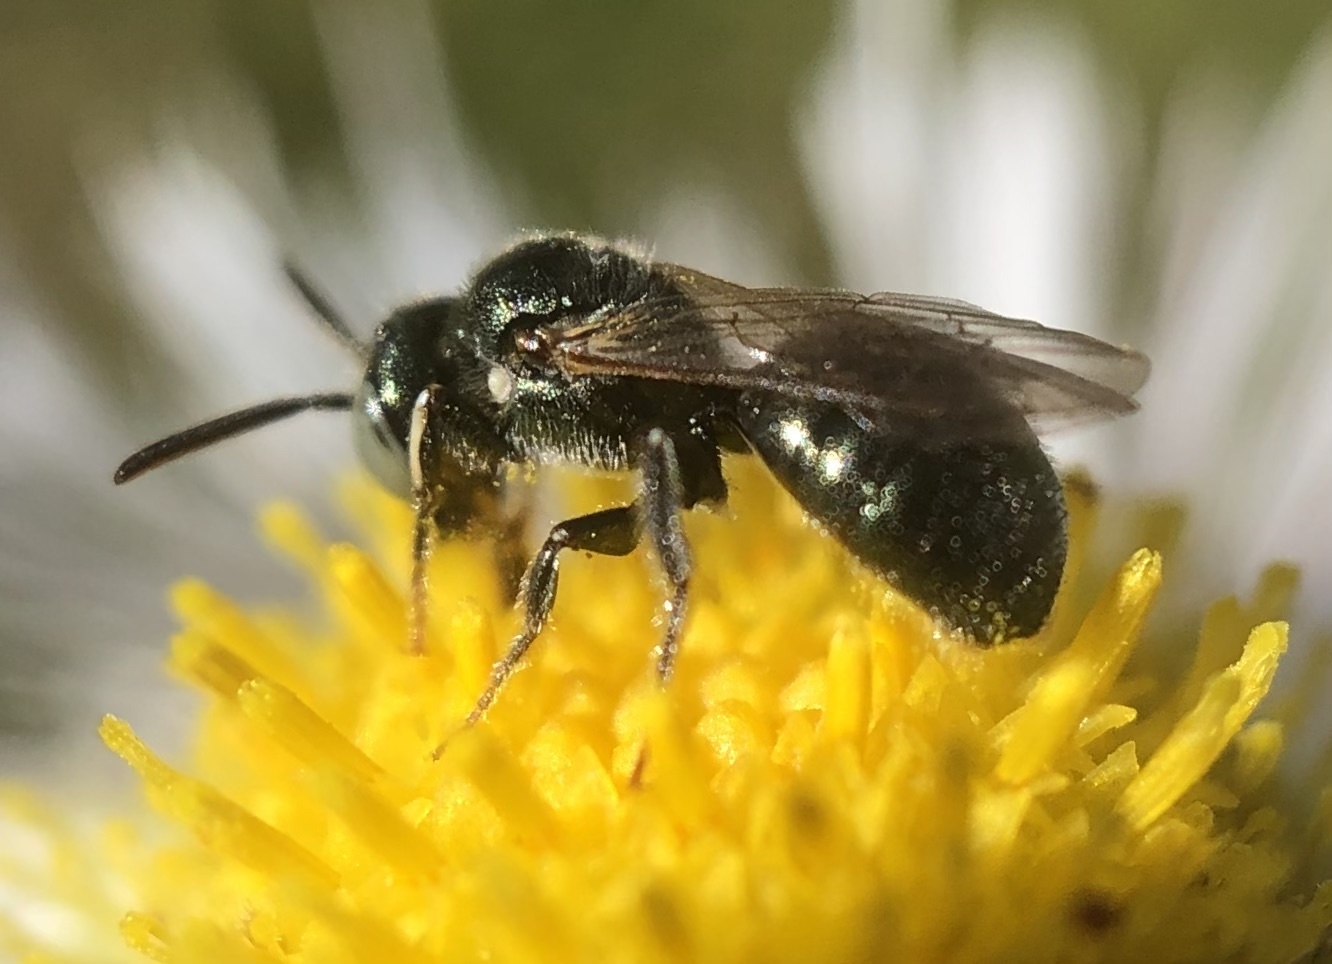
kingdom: Animalia
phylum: Arthropoda
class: Insecta
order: Hymenoptera
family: Apidae
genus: Ceratina
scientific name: Ceratina strenua
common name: Nimble carpenter bee
